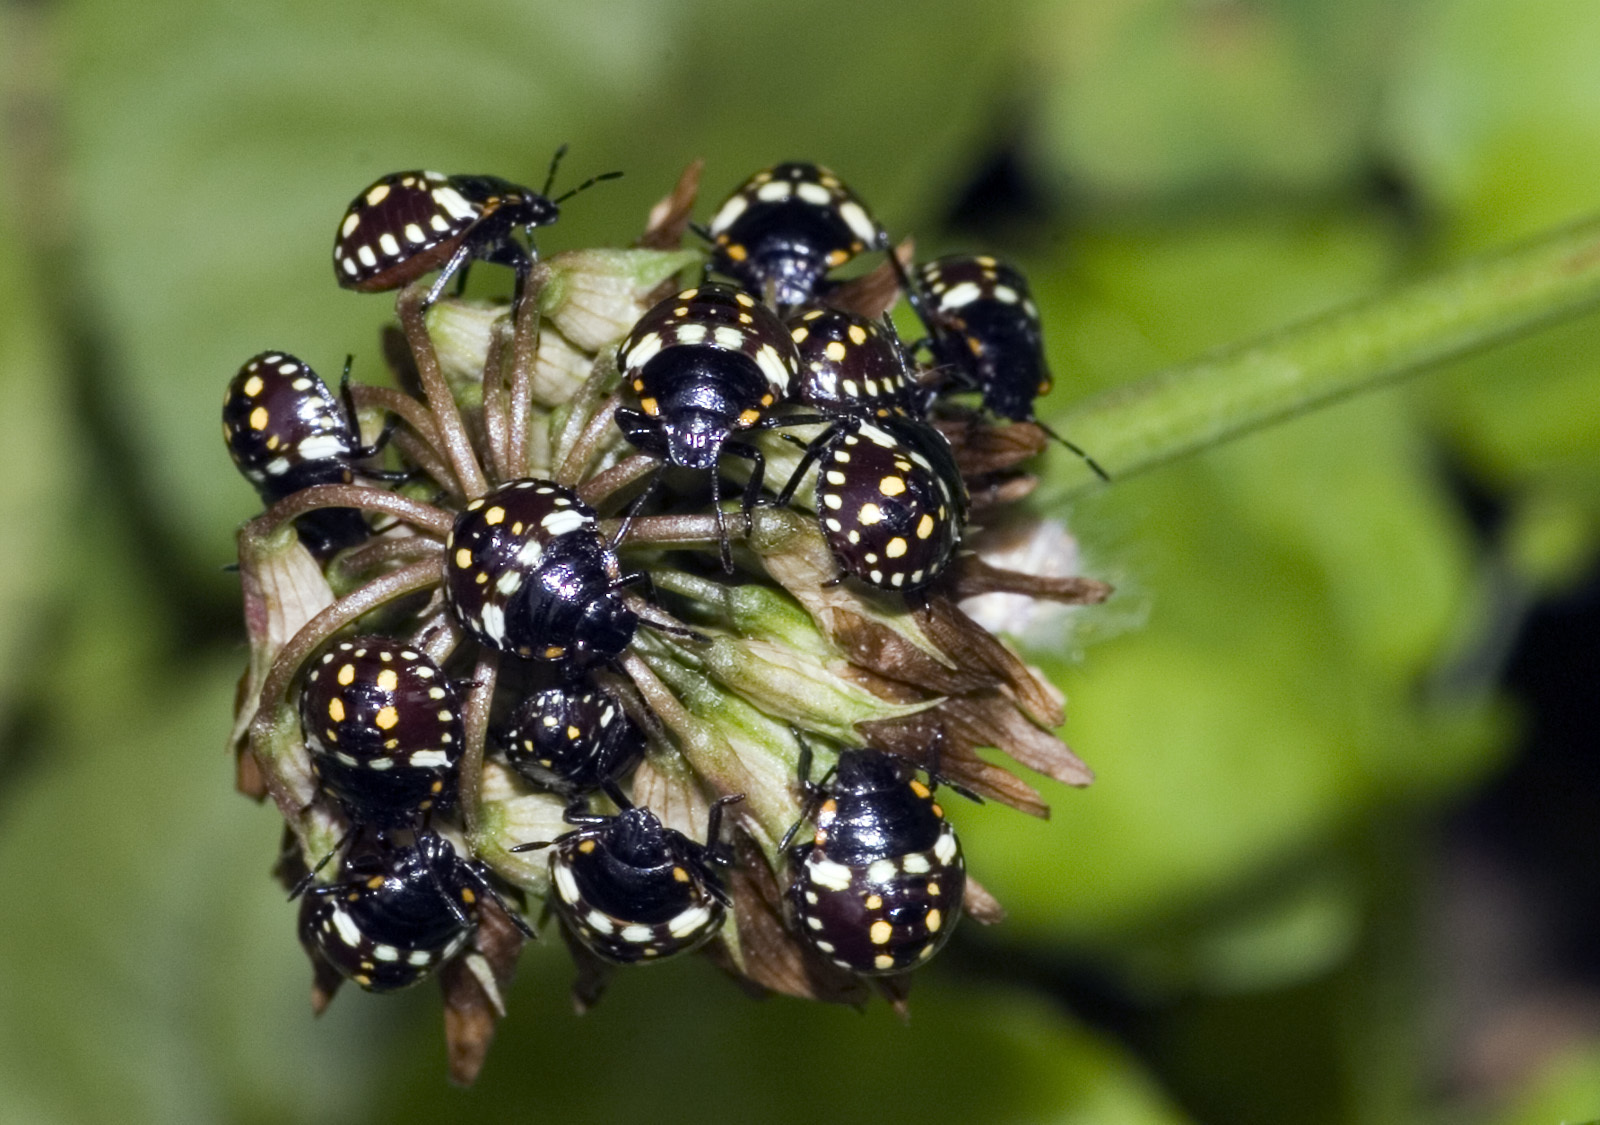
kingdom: Animalia
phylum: Arthropoda
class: Insecta
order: Hemiptera
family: Pentatomidae
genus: Nezara
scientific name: Nezara viridula
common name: Southern green stink bug
